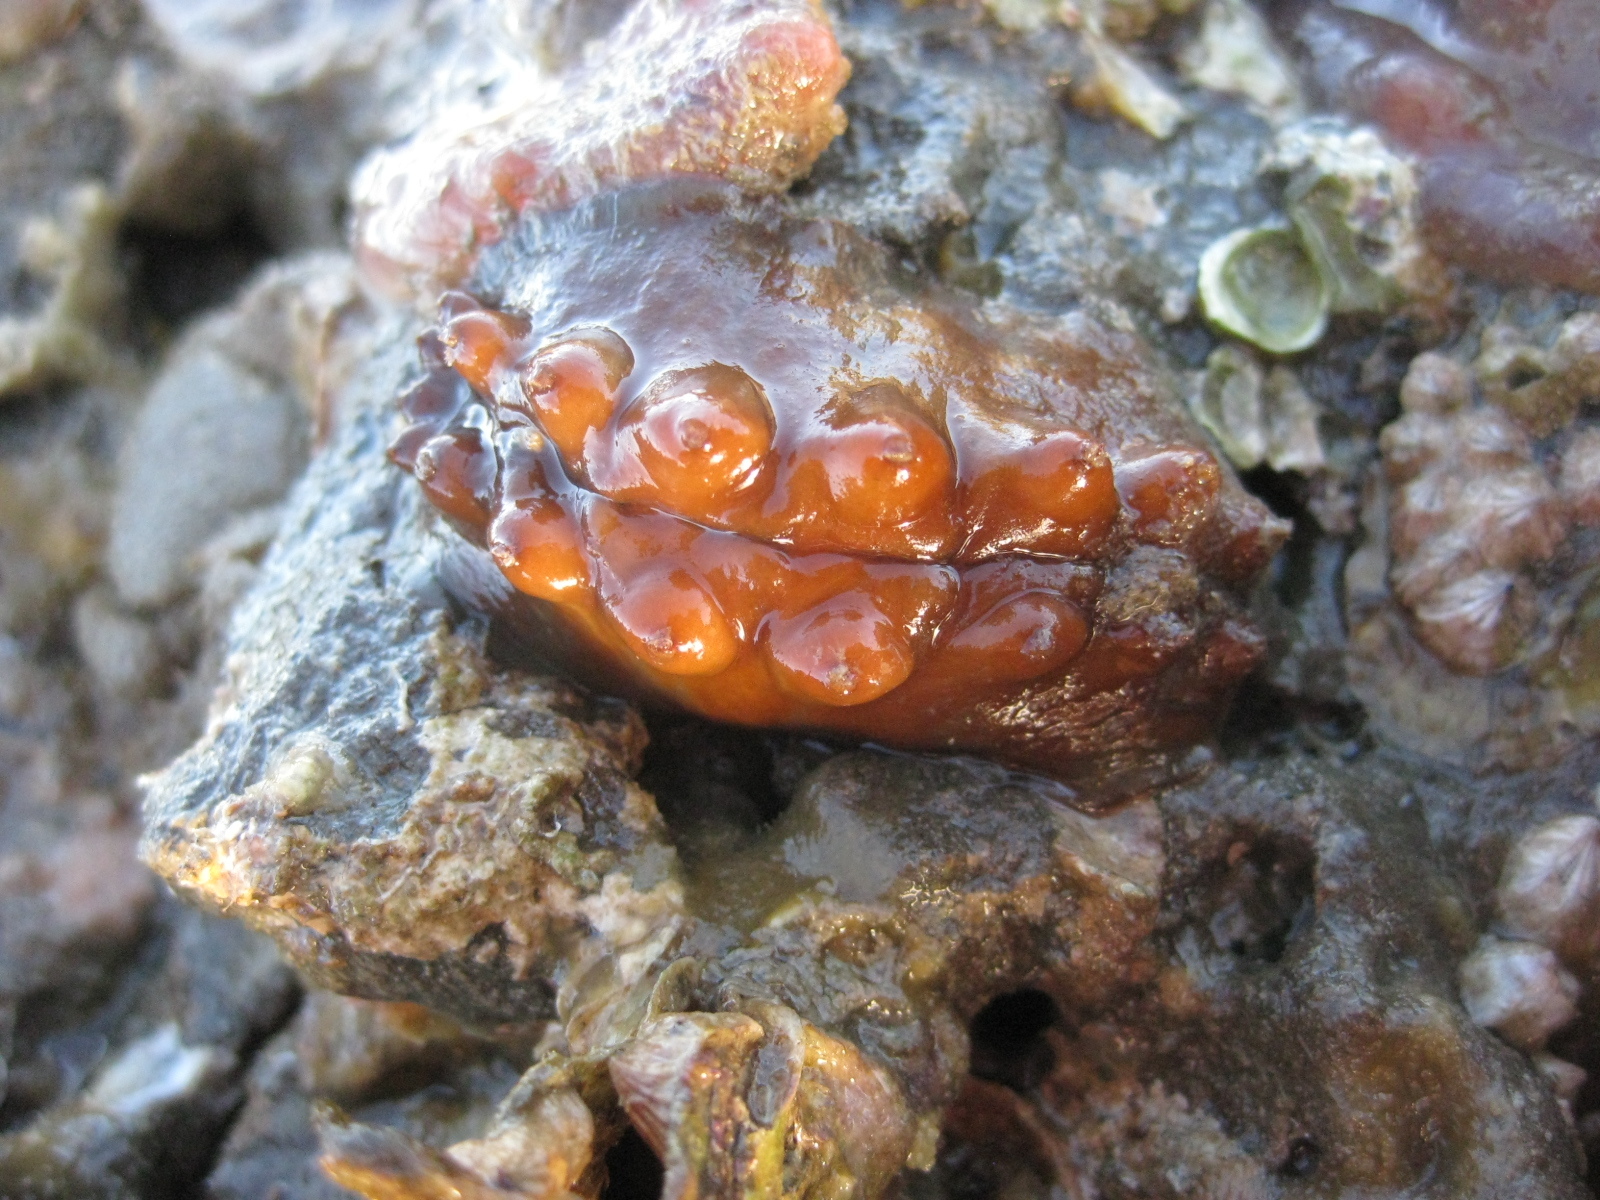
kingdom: Animalia
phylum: Mollusca
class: Polyplacophora
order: Chitonida
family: Acanthochitonidae
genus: Cryptoconchus
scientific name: Cryptoconchus porosus
